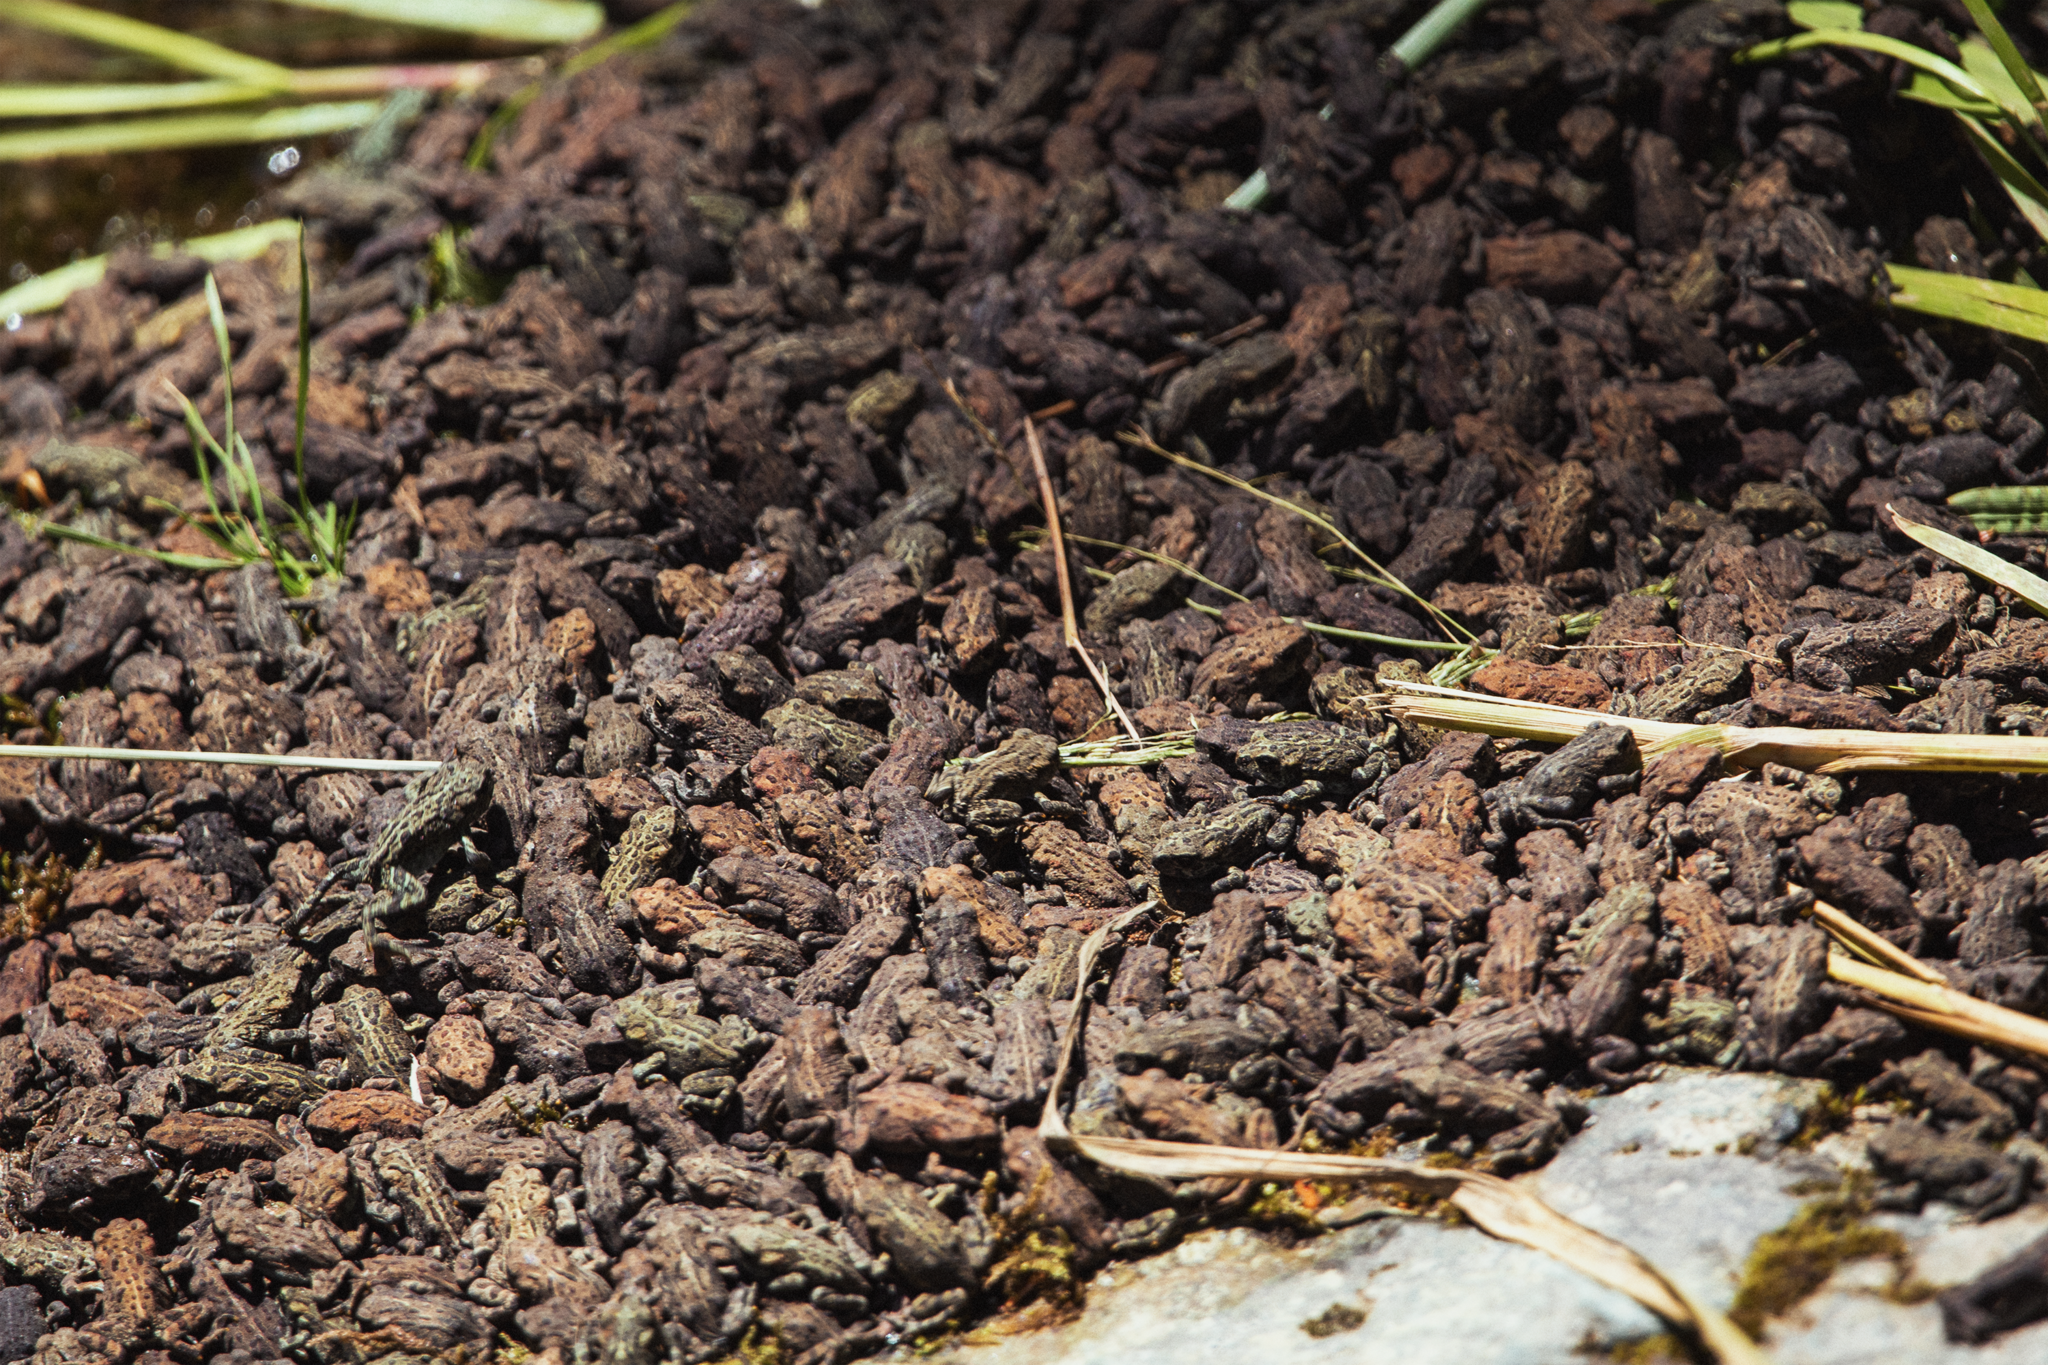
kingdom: Animalia
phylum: Chordata
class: Amphibia
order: Anura
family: Bufonidae
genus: Anaxyrus
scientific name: Anaxyrus boreas
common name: Western toad
